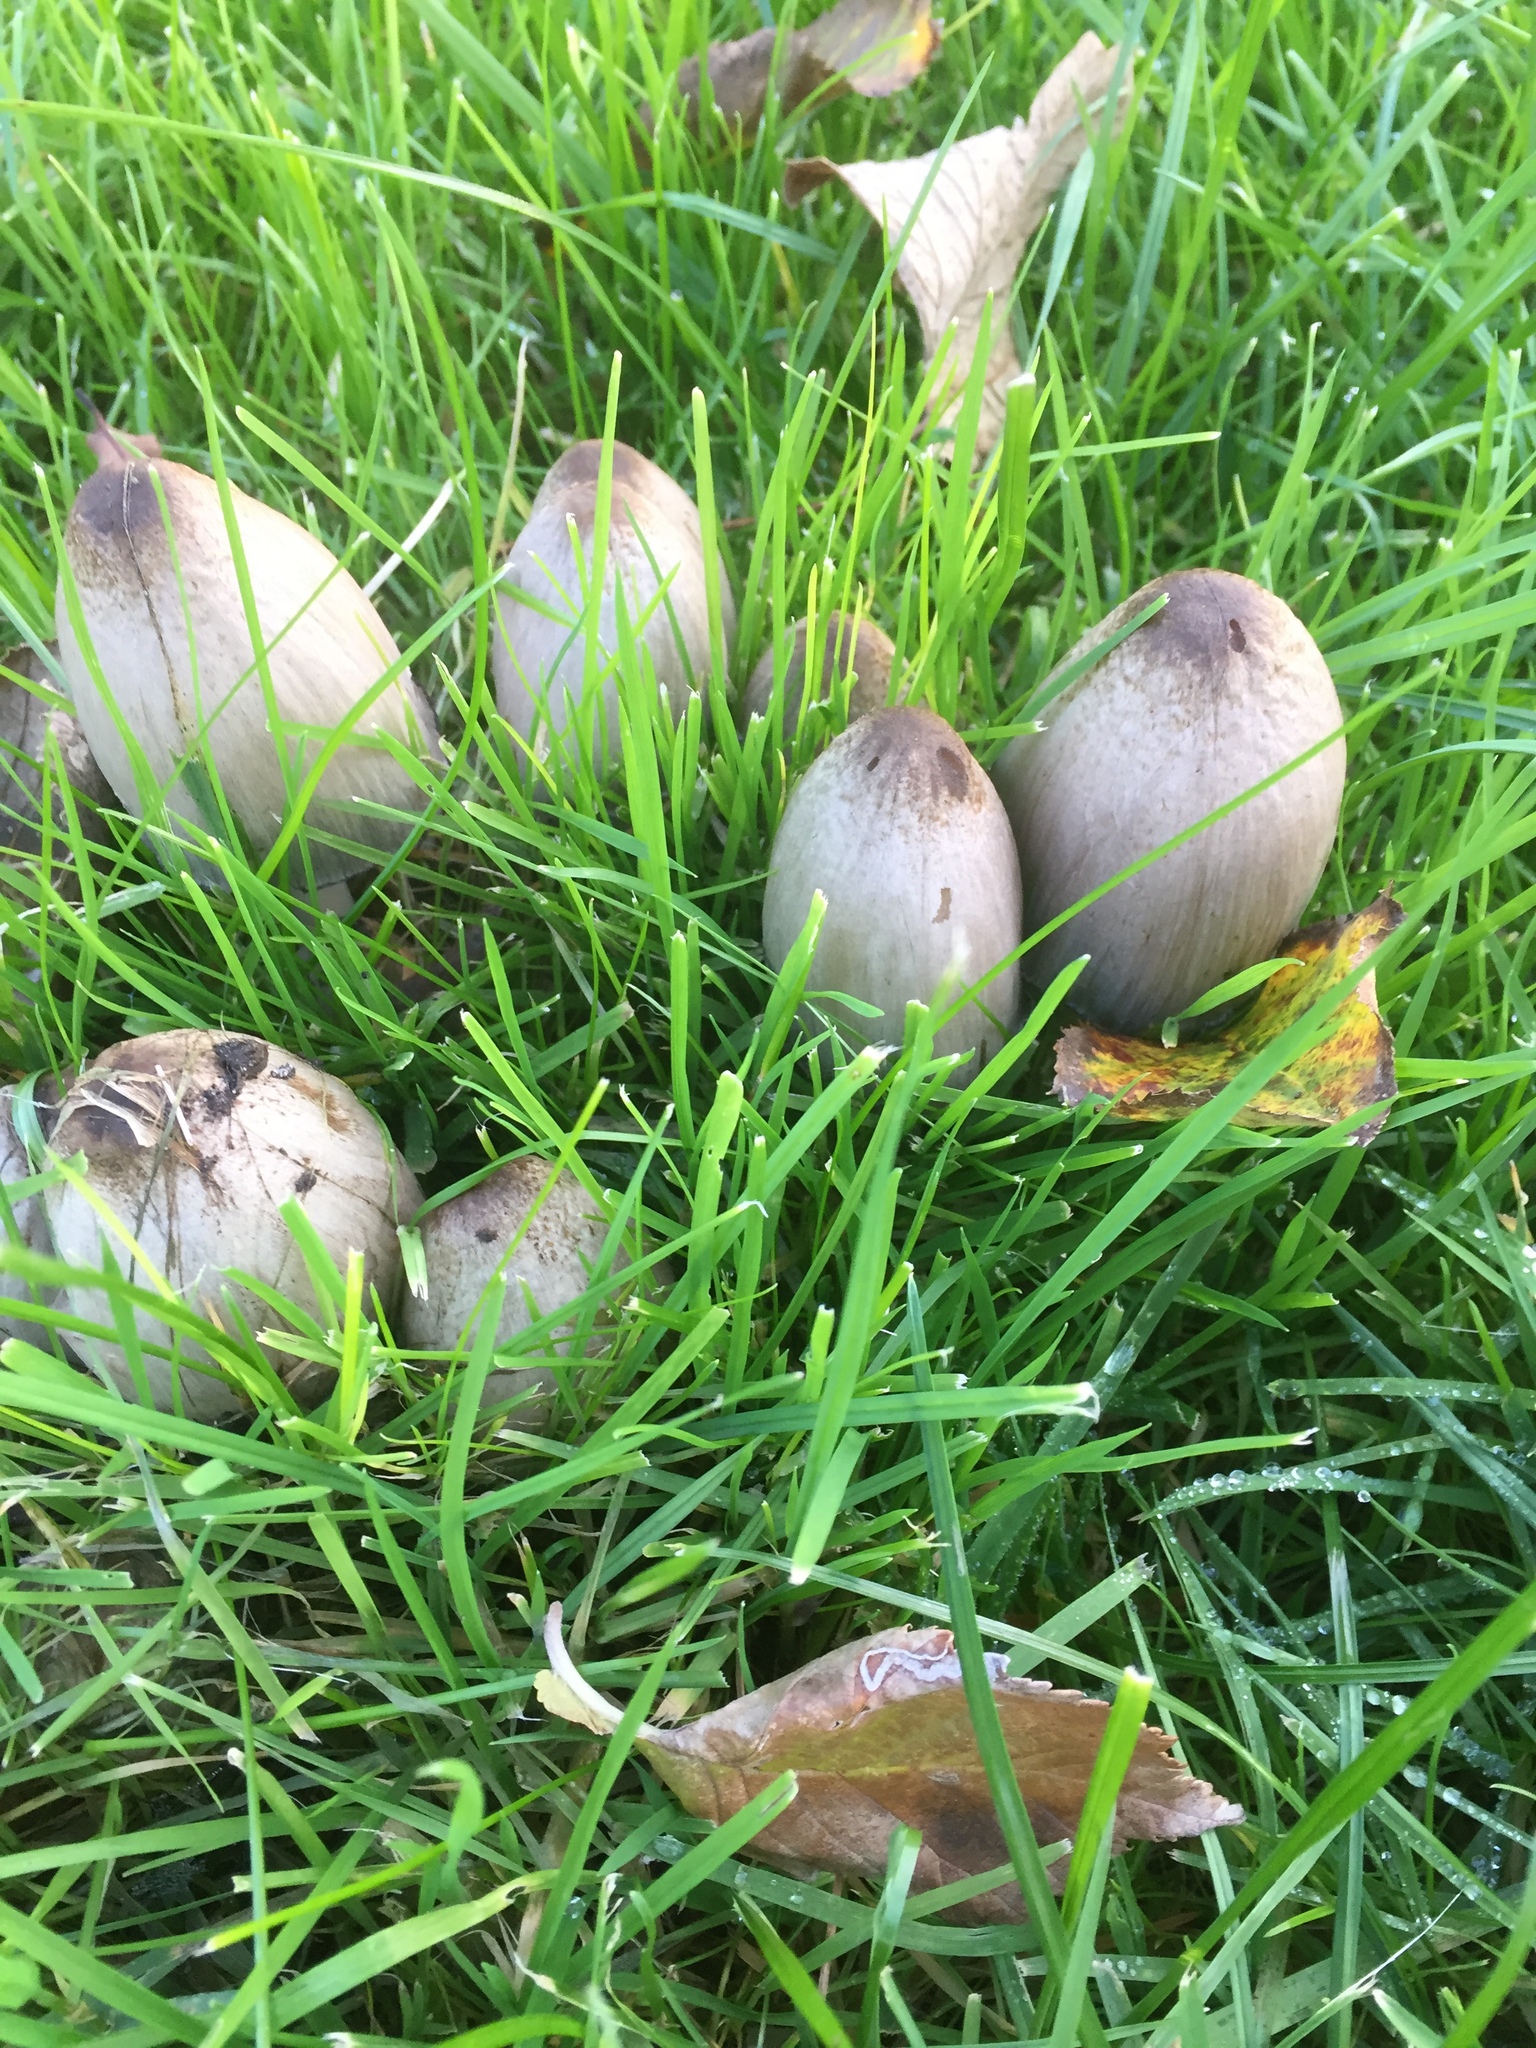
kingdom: Fungi
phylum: Basidiomycota
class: Agaricomycetes
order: Agaricales
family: Psathyrellaceae
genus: Coprinopsis
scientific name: Coprinopsis atramentaria
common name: Common ink-cap
